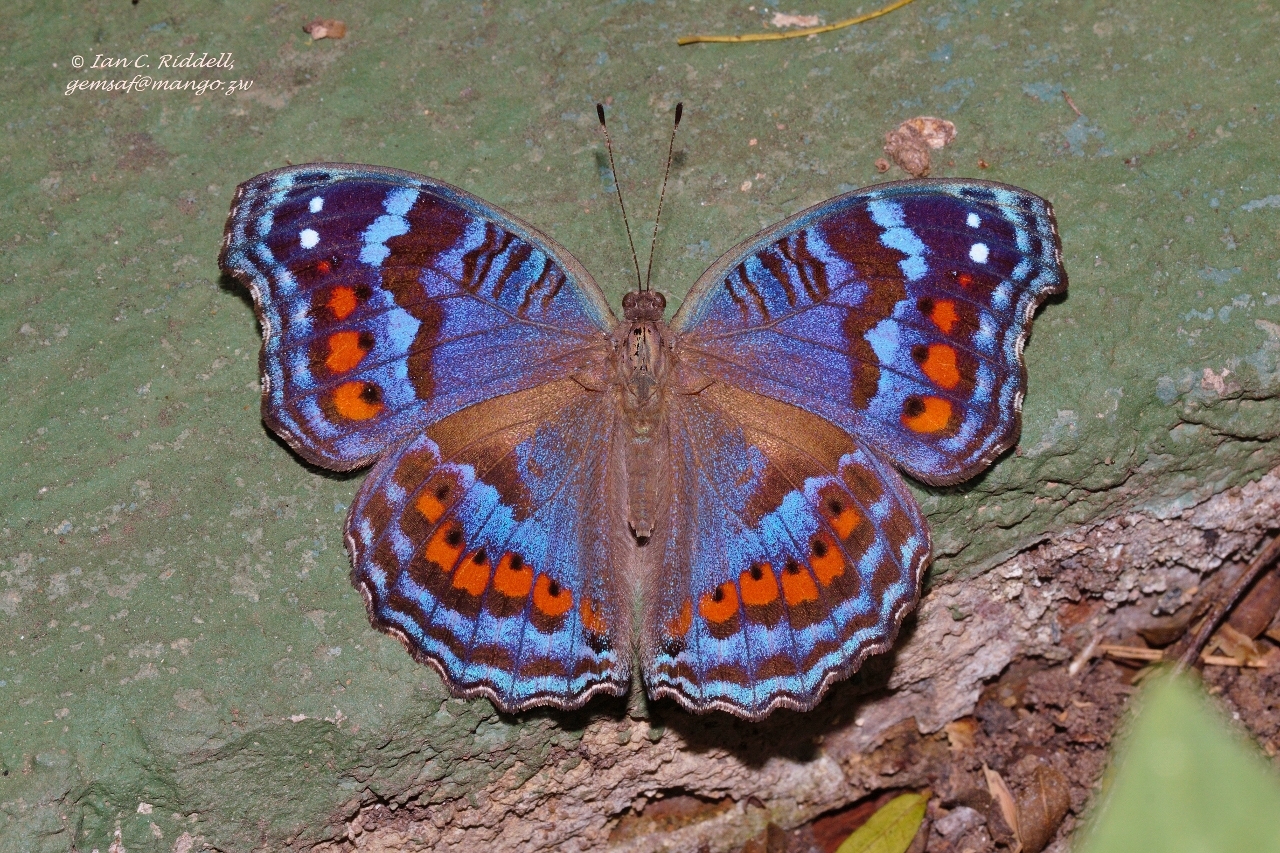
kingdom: Animalia
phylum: Arthropoda
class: Insecta
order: Lepidoptera
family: Nymphalidae
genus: Precis
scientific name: Precis octavia
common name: Gaudy commodore
